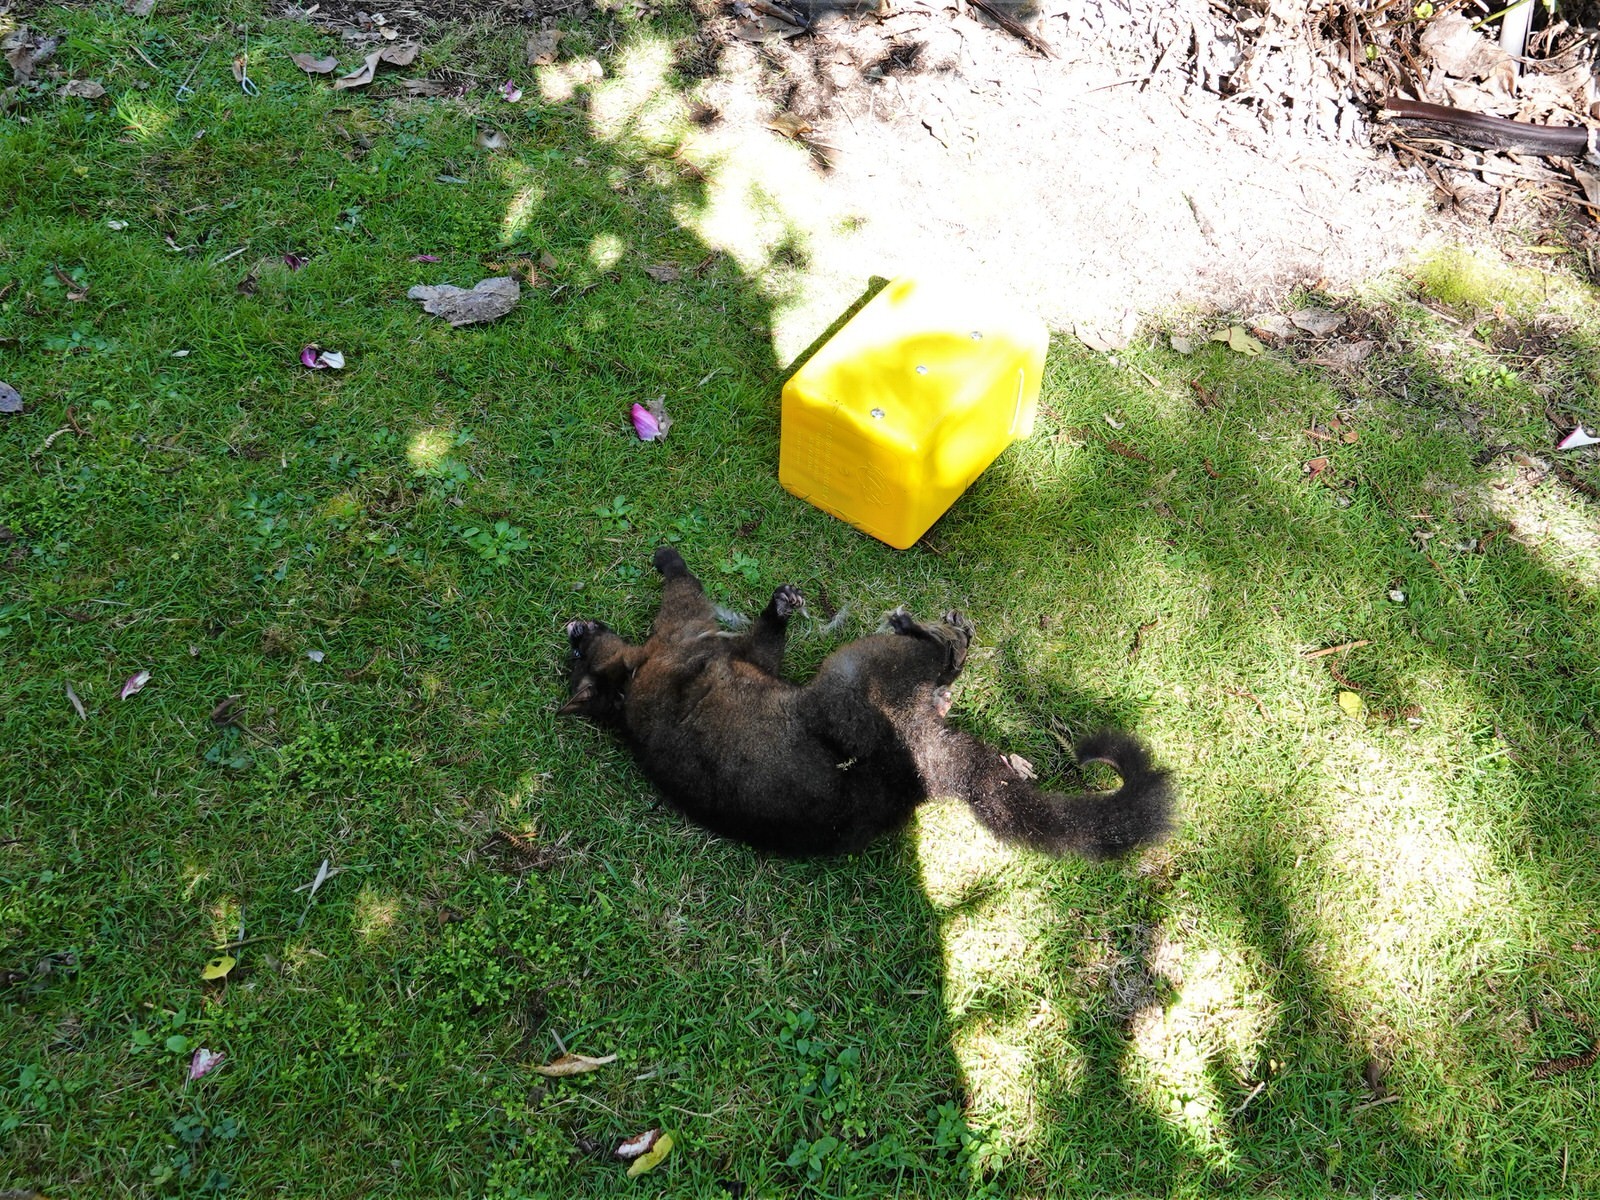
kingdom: Animalia
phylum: Chordata
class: Mammalia
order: Diprotodontia
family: Phalangeridae
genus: Trichosurus
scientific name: Trichosurus vulpecula
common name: Common brushtail
